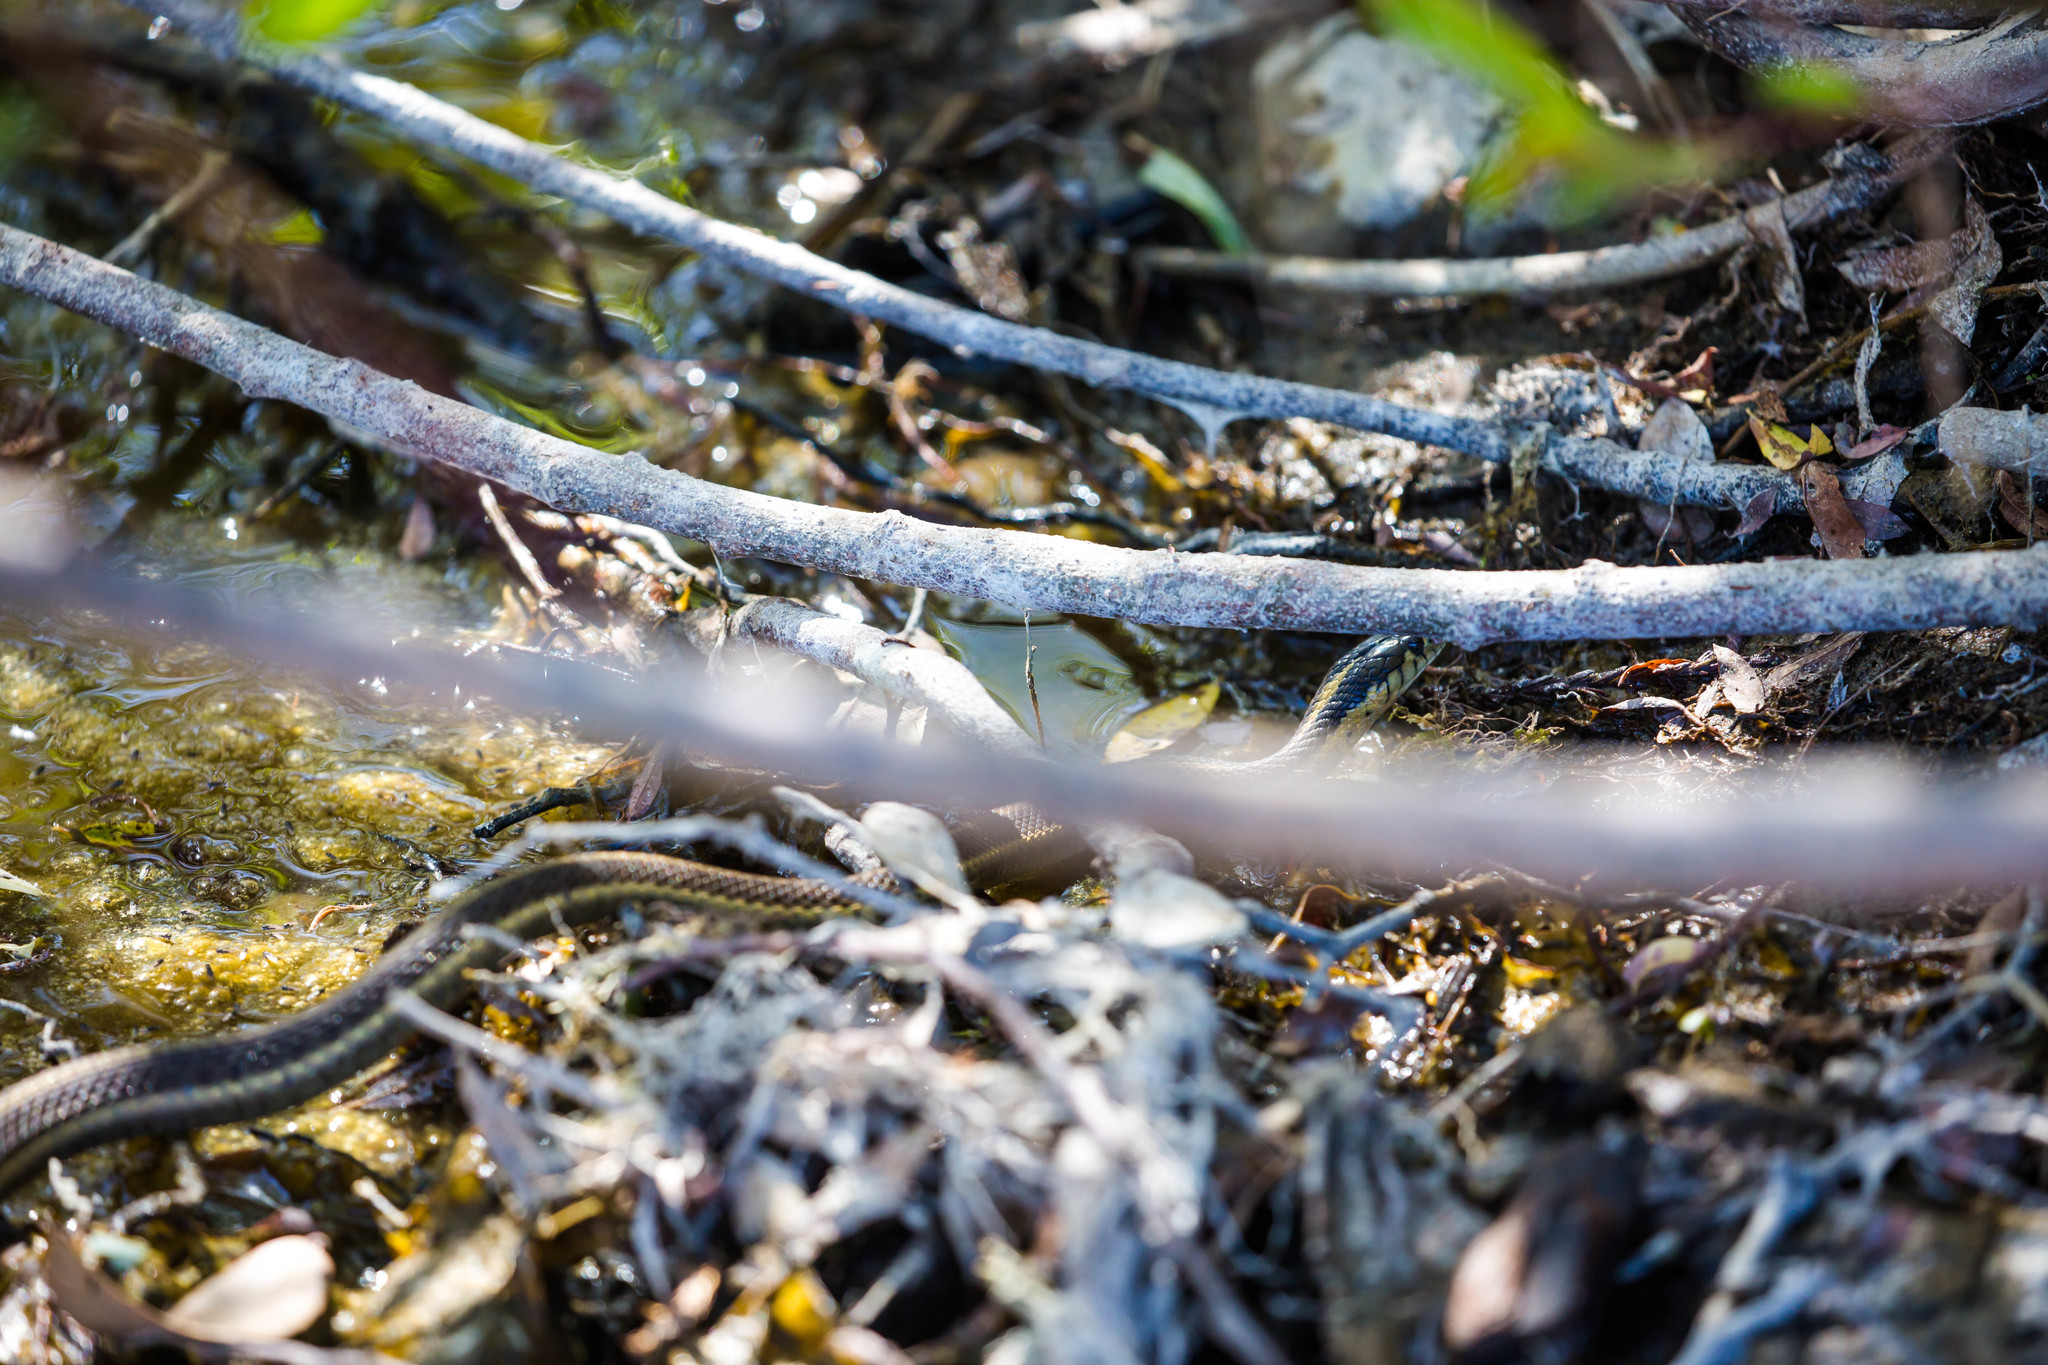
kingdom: Animalia
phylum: Chordata
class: Squamata
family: Colubridae
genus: Thamnophis
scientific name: Thamnophis atratus
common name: Pacific coast aquatic garter snake
